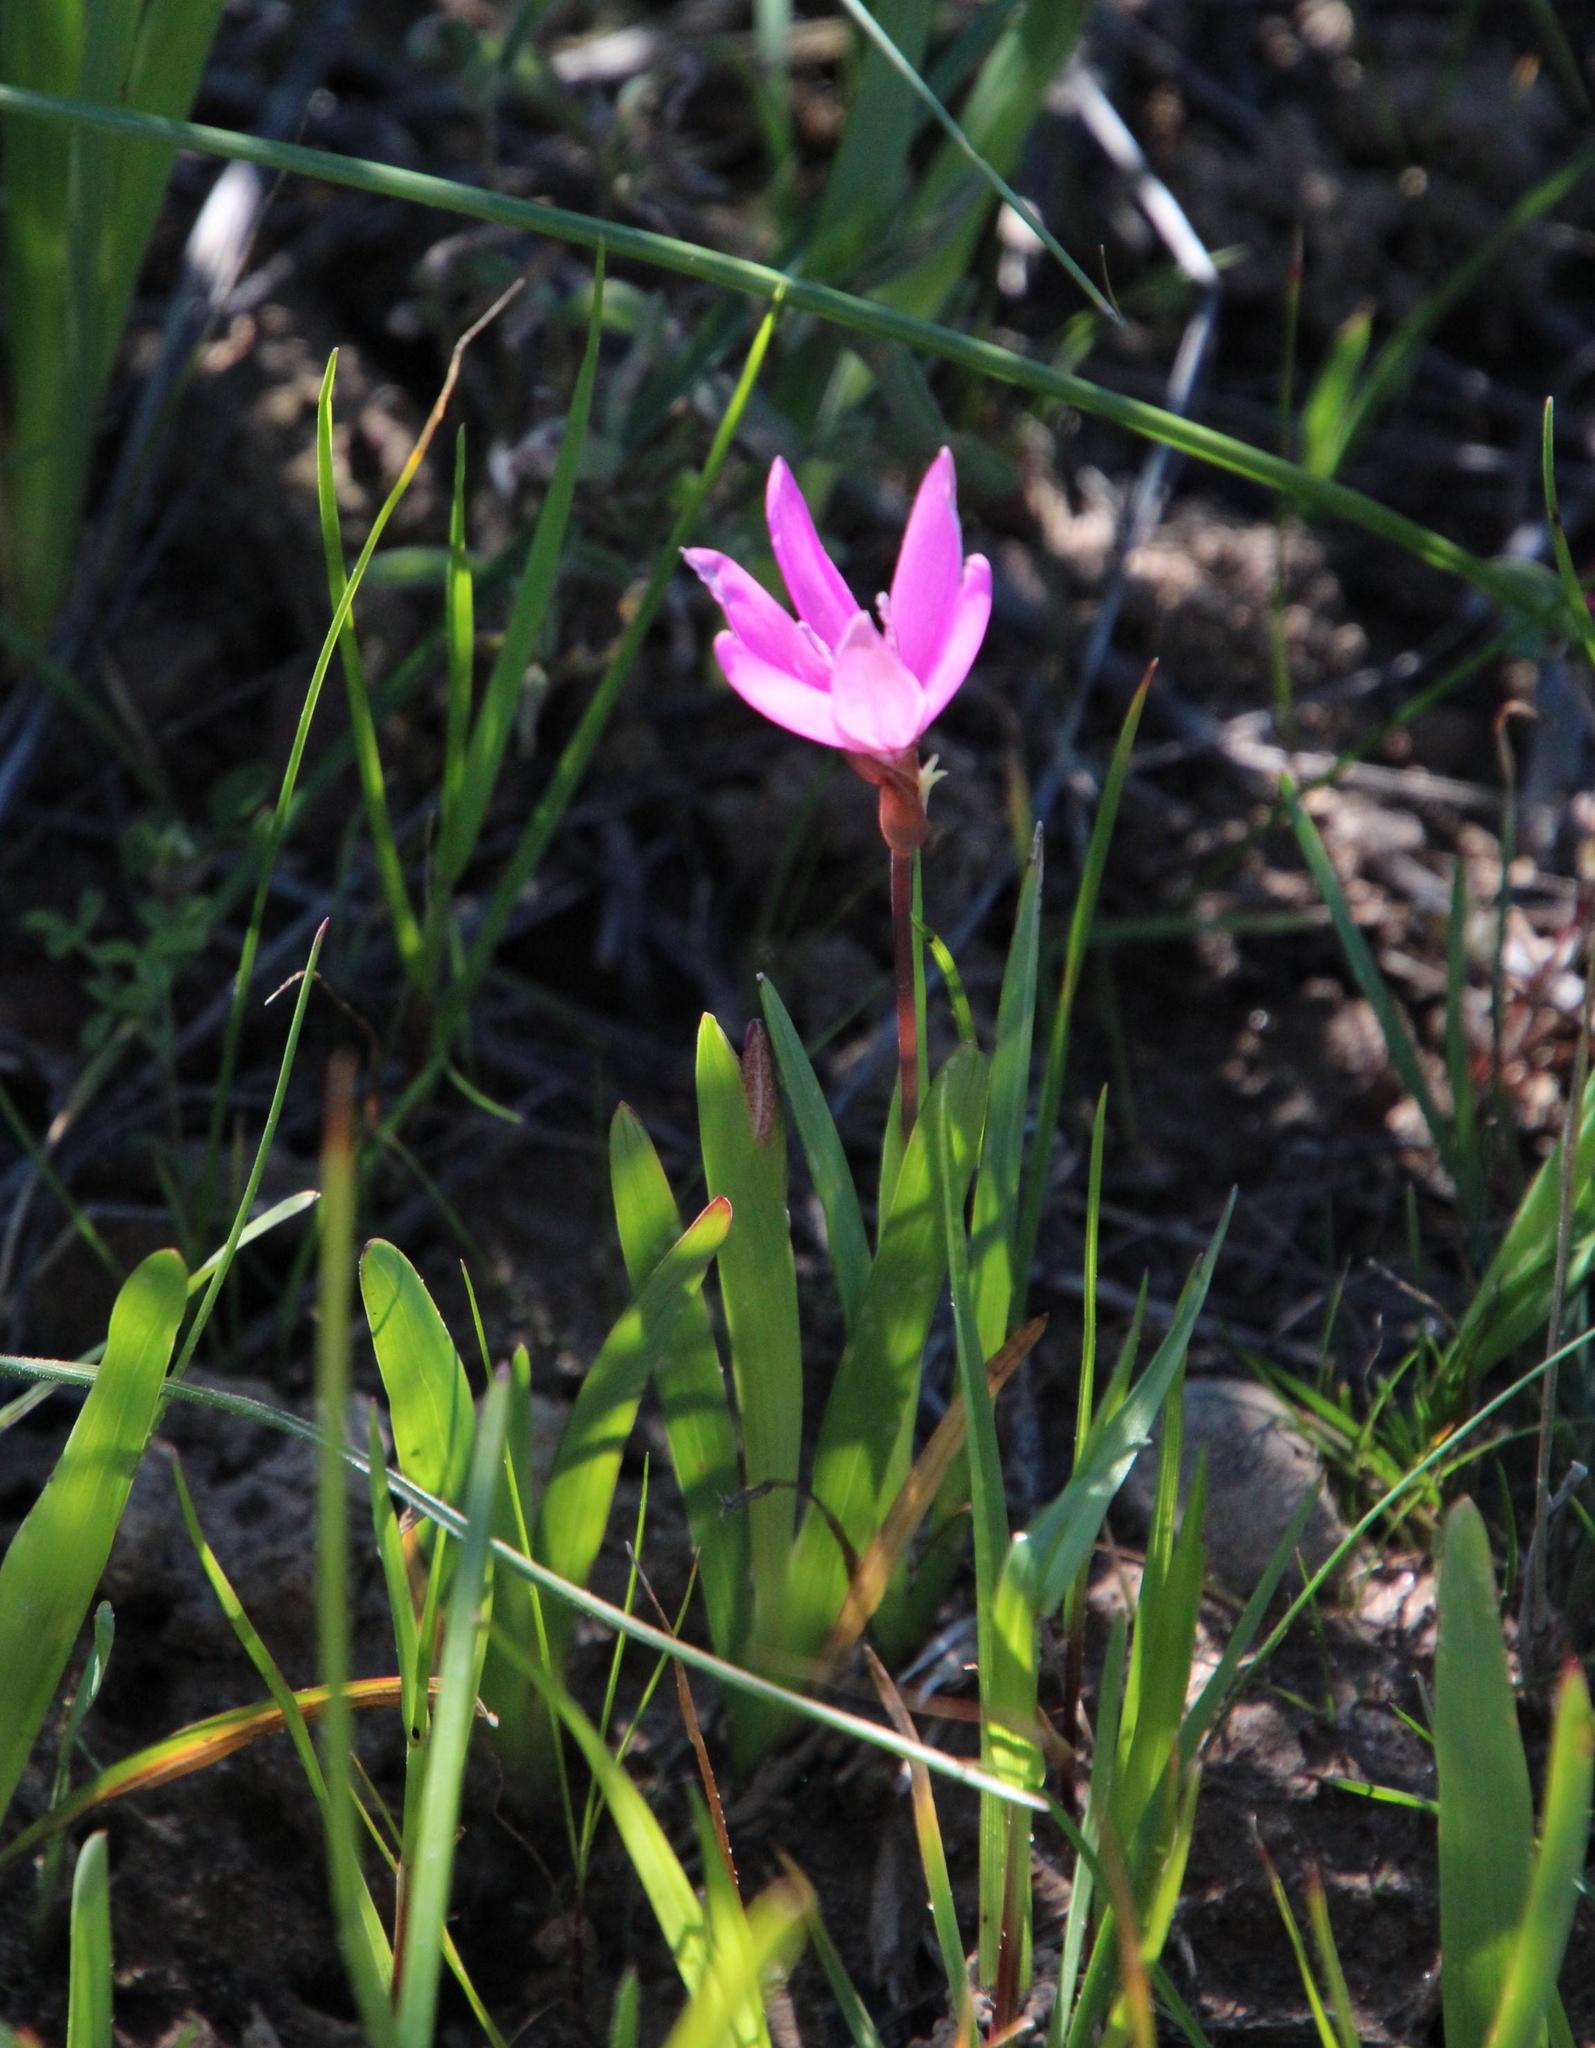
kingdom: Plantae
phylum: Tracheophyta
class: Liliopsida
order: Asparagales
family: Iridaceae
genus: Hesperantha
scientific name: Hesperantha pauciflora
